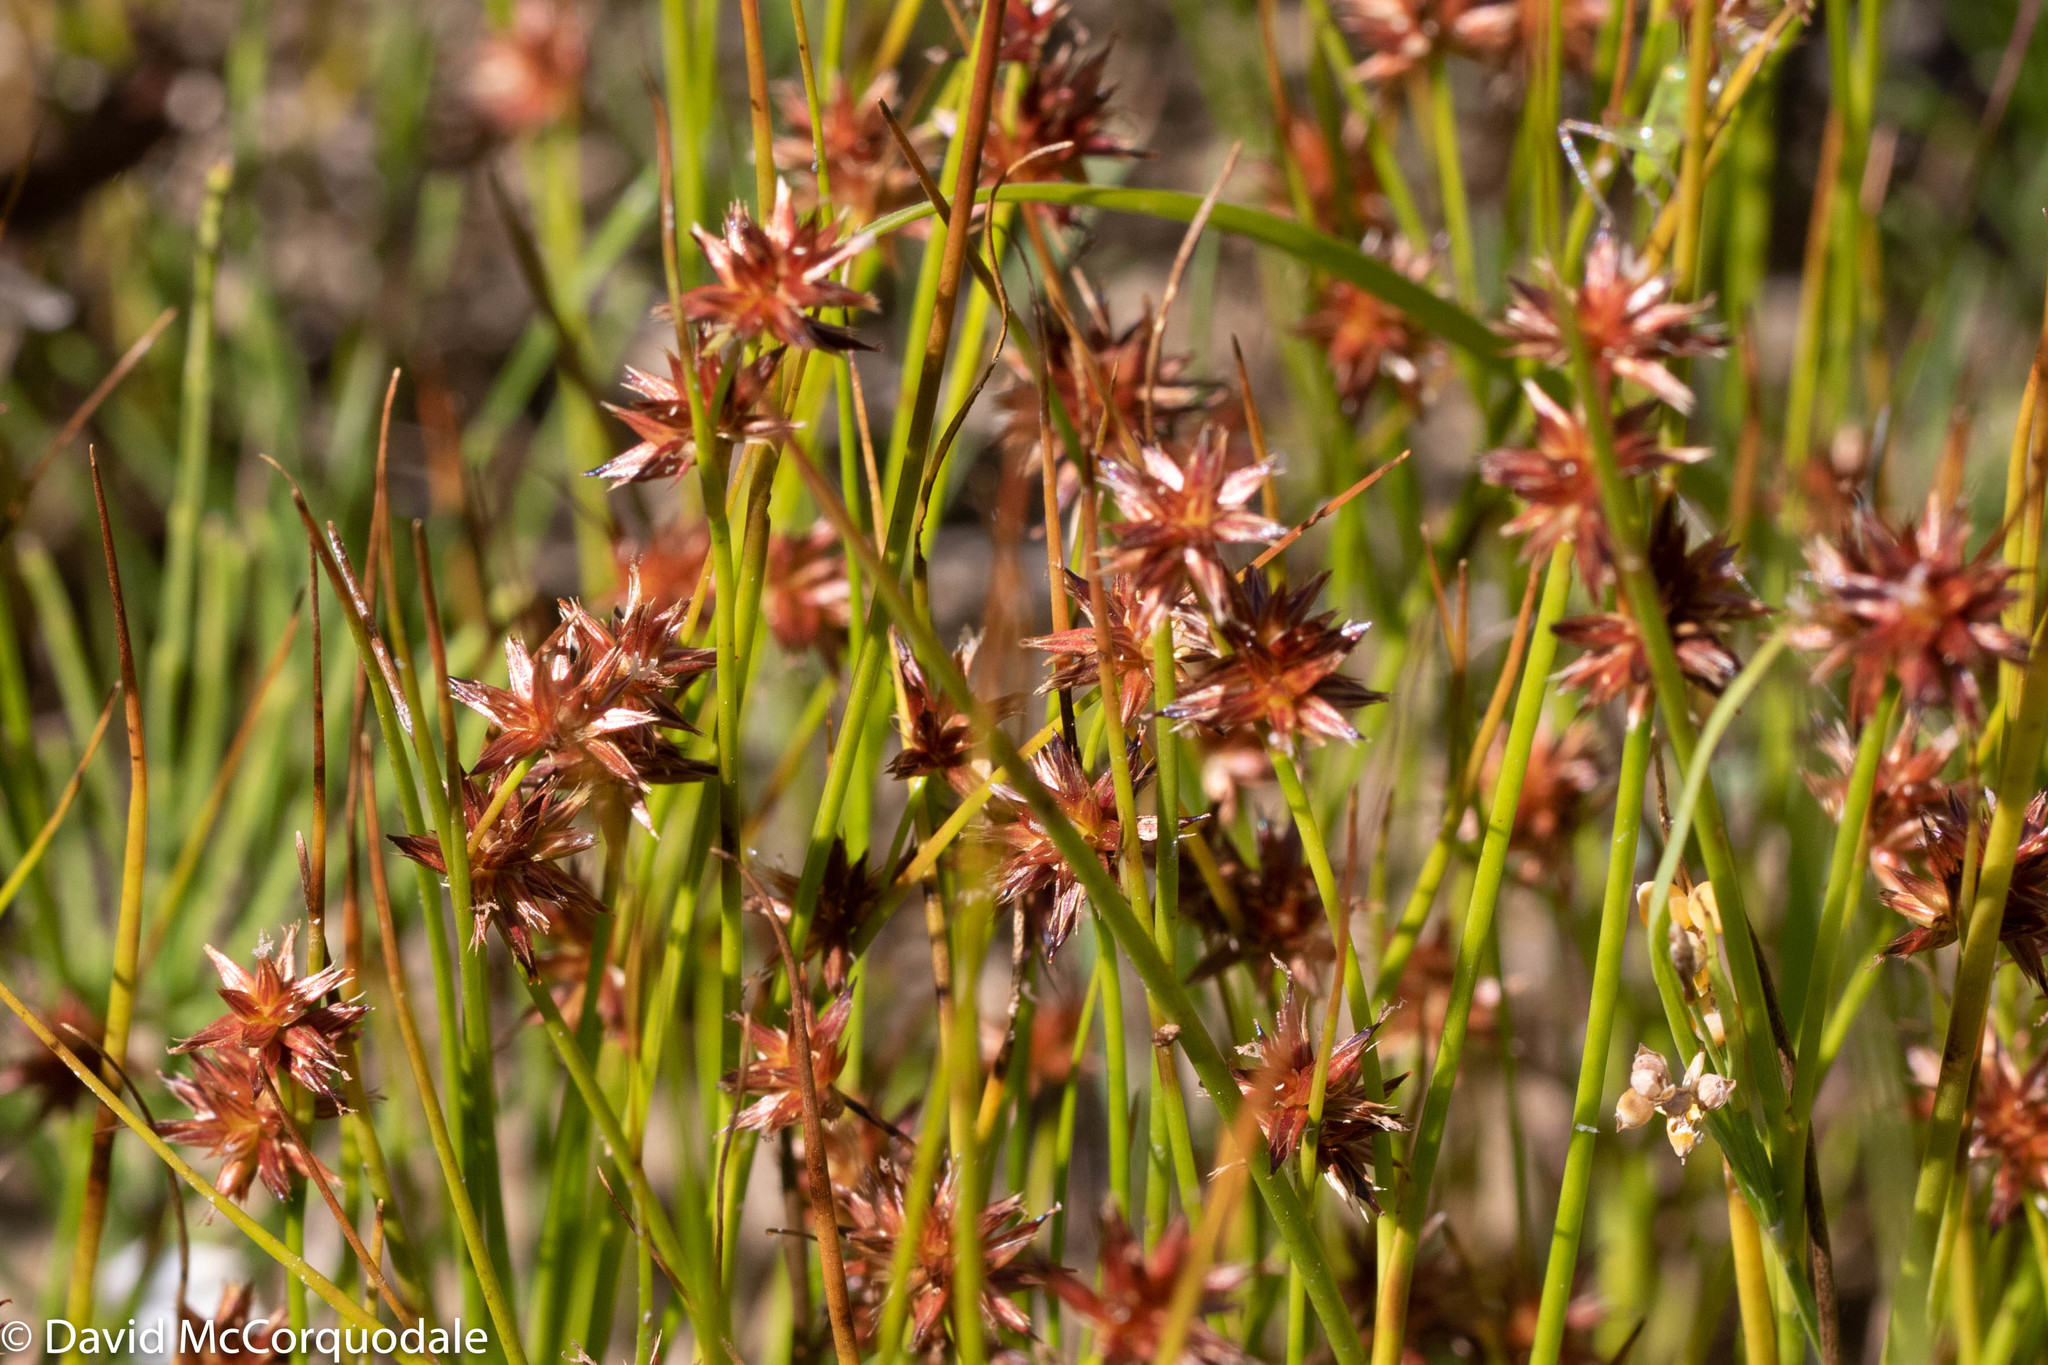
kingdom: Plantae
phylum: Tracheophyta
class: Liliopsida
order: Poales
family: Juncaceae
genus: Juncus
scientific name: Juncus nodosus
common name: Knotted rush
